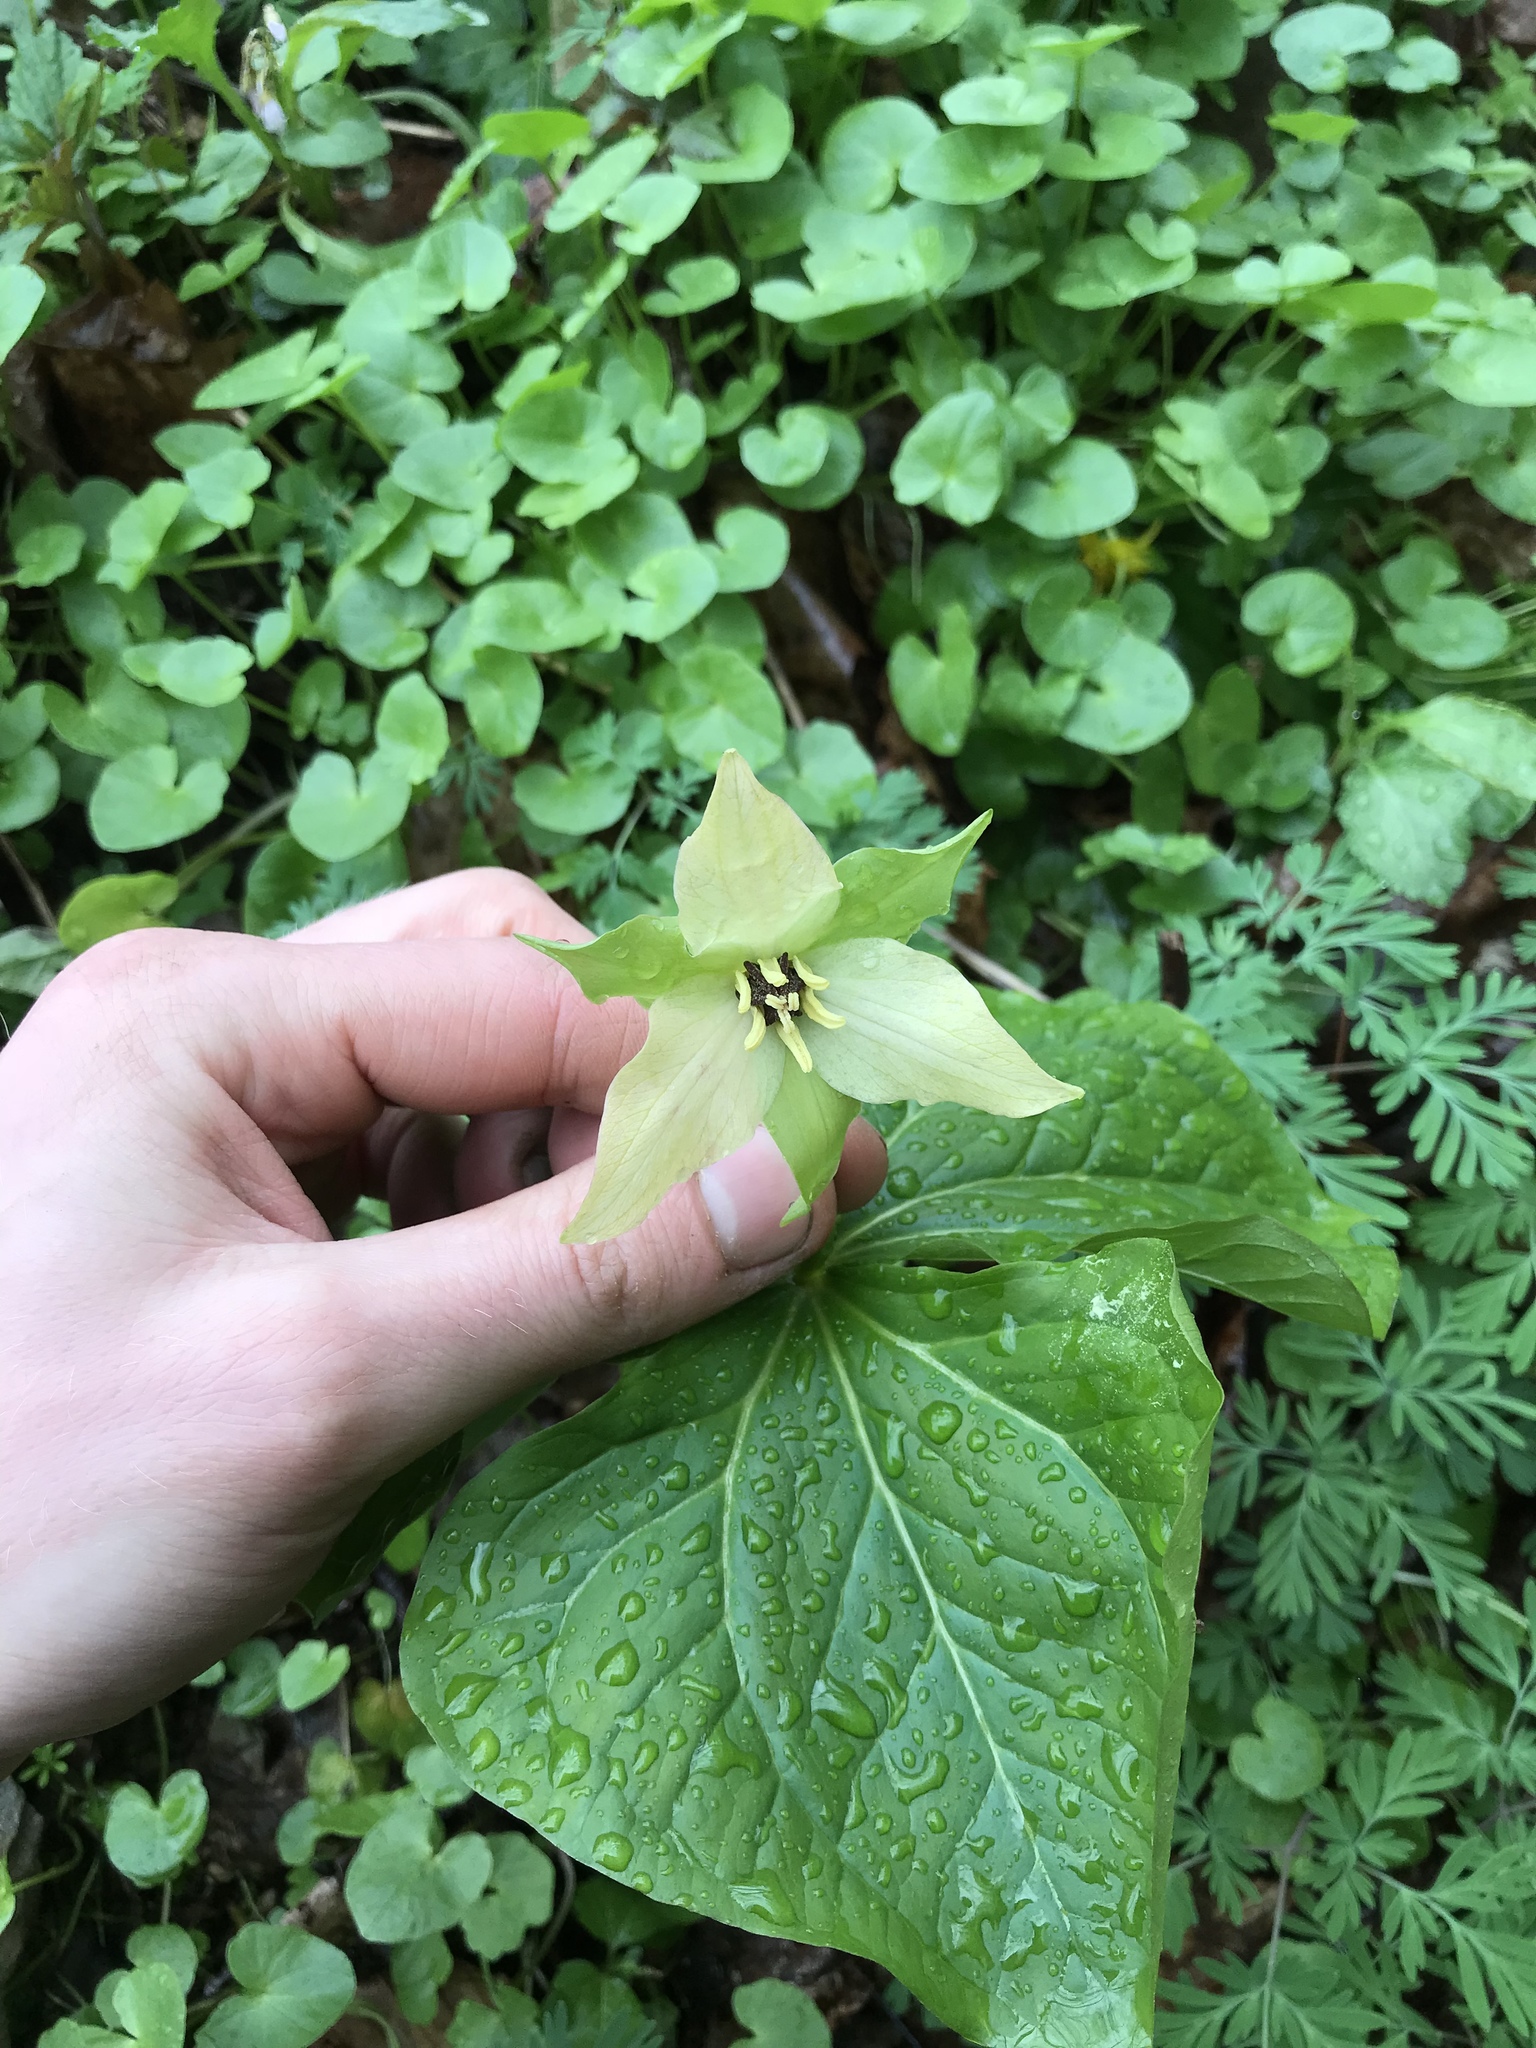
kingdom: Plantae
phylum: Tracheophyta
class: Liliopsida
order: Liliales
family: Melanthiaceae
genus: Trillium
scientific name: Trillium erectum
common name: Purple trillium
